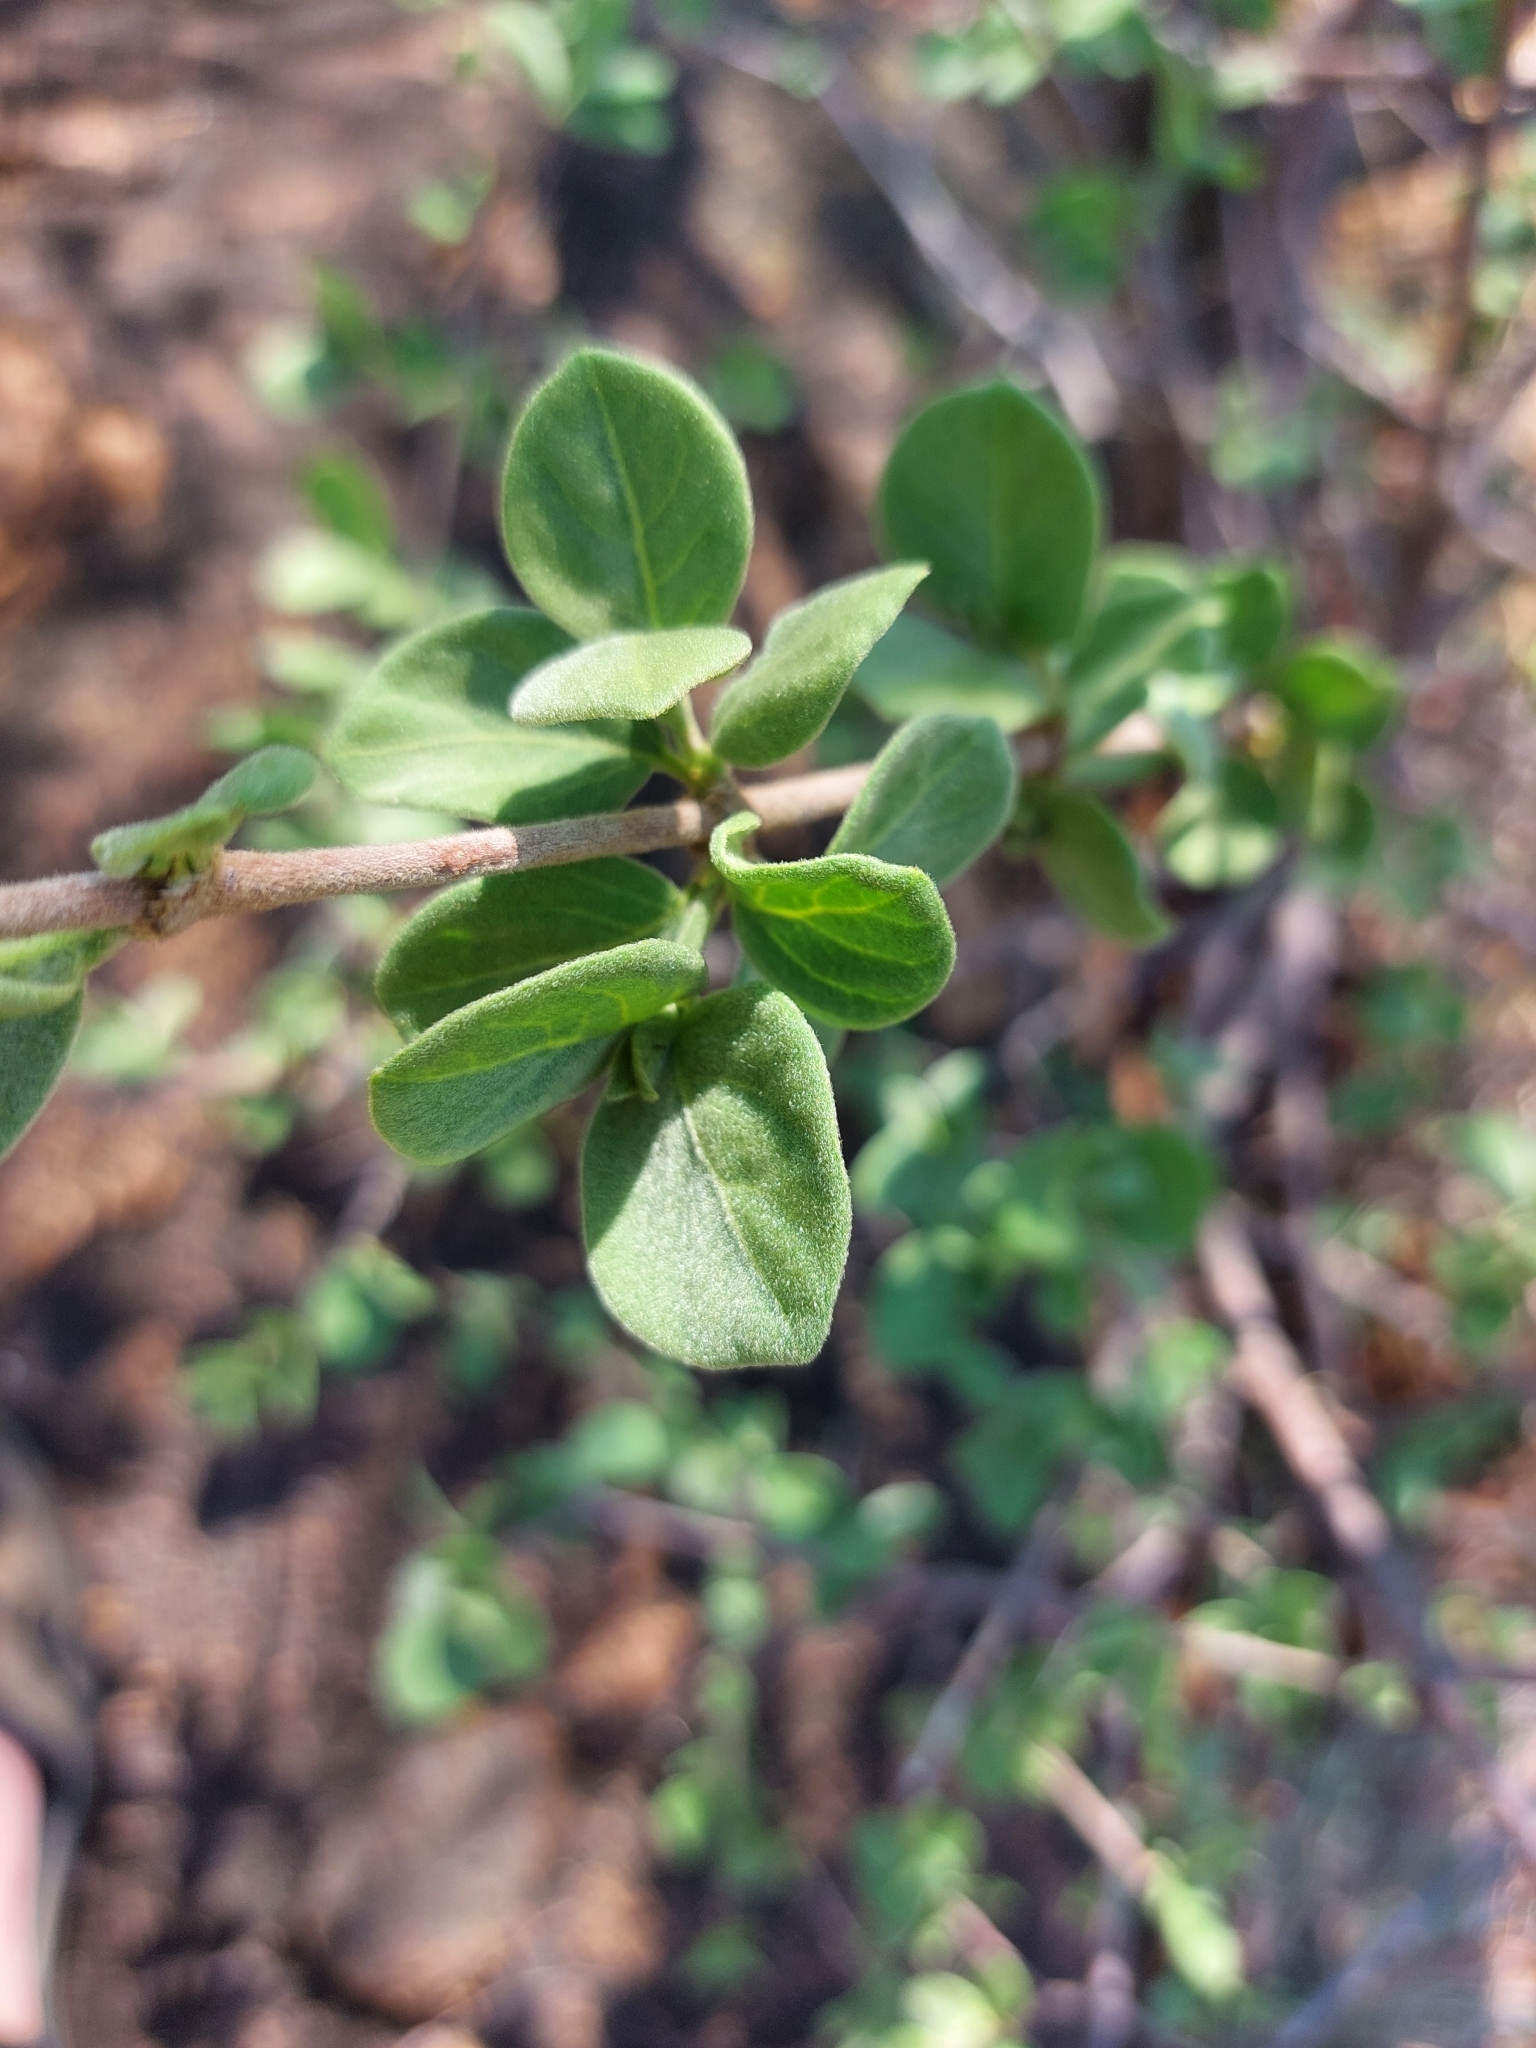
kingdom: Plantae
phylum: Tracheophyta
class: Magnoliopsida
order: Gentianales
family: Rubiaceae
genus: Vangueria
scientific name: Vangueria dryadum
